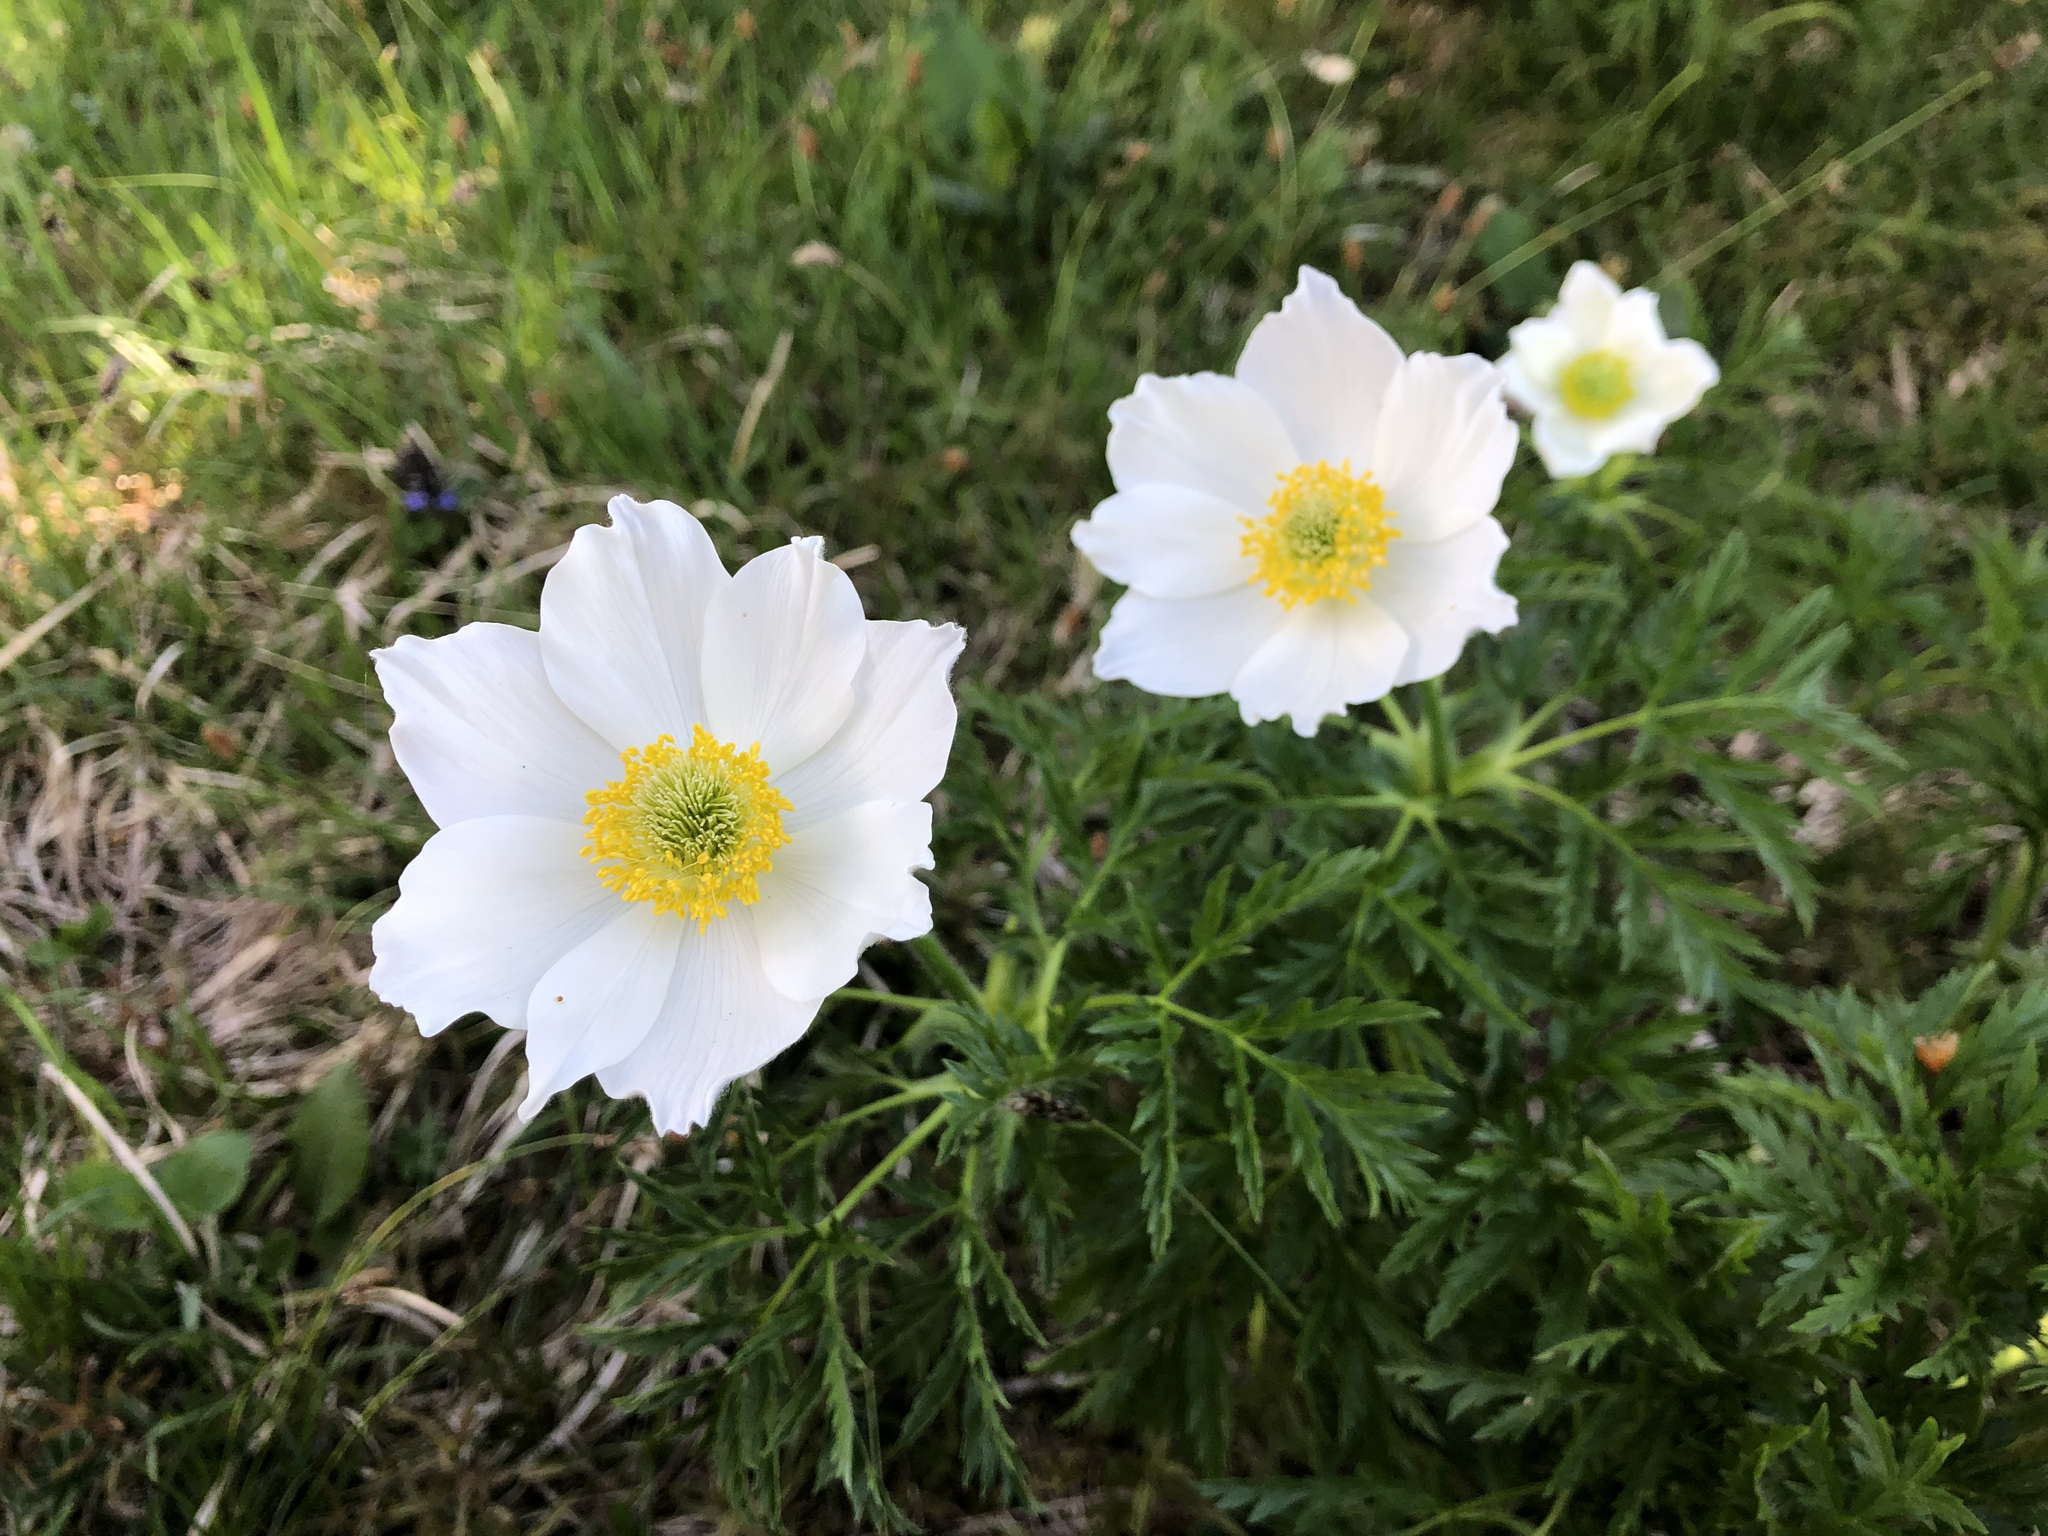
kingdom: Plantae
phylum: Tracheophyta
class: Magnoliopsida
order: Ranunculales
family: Ranunculaceae
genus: Pulsatilla
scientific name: Pulsatilla alpina
